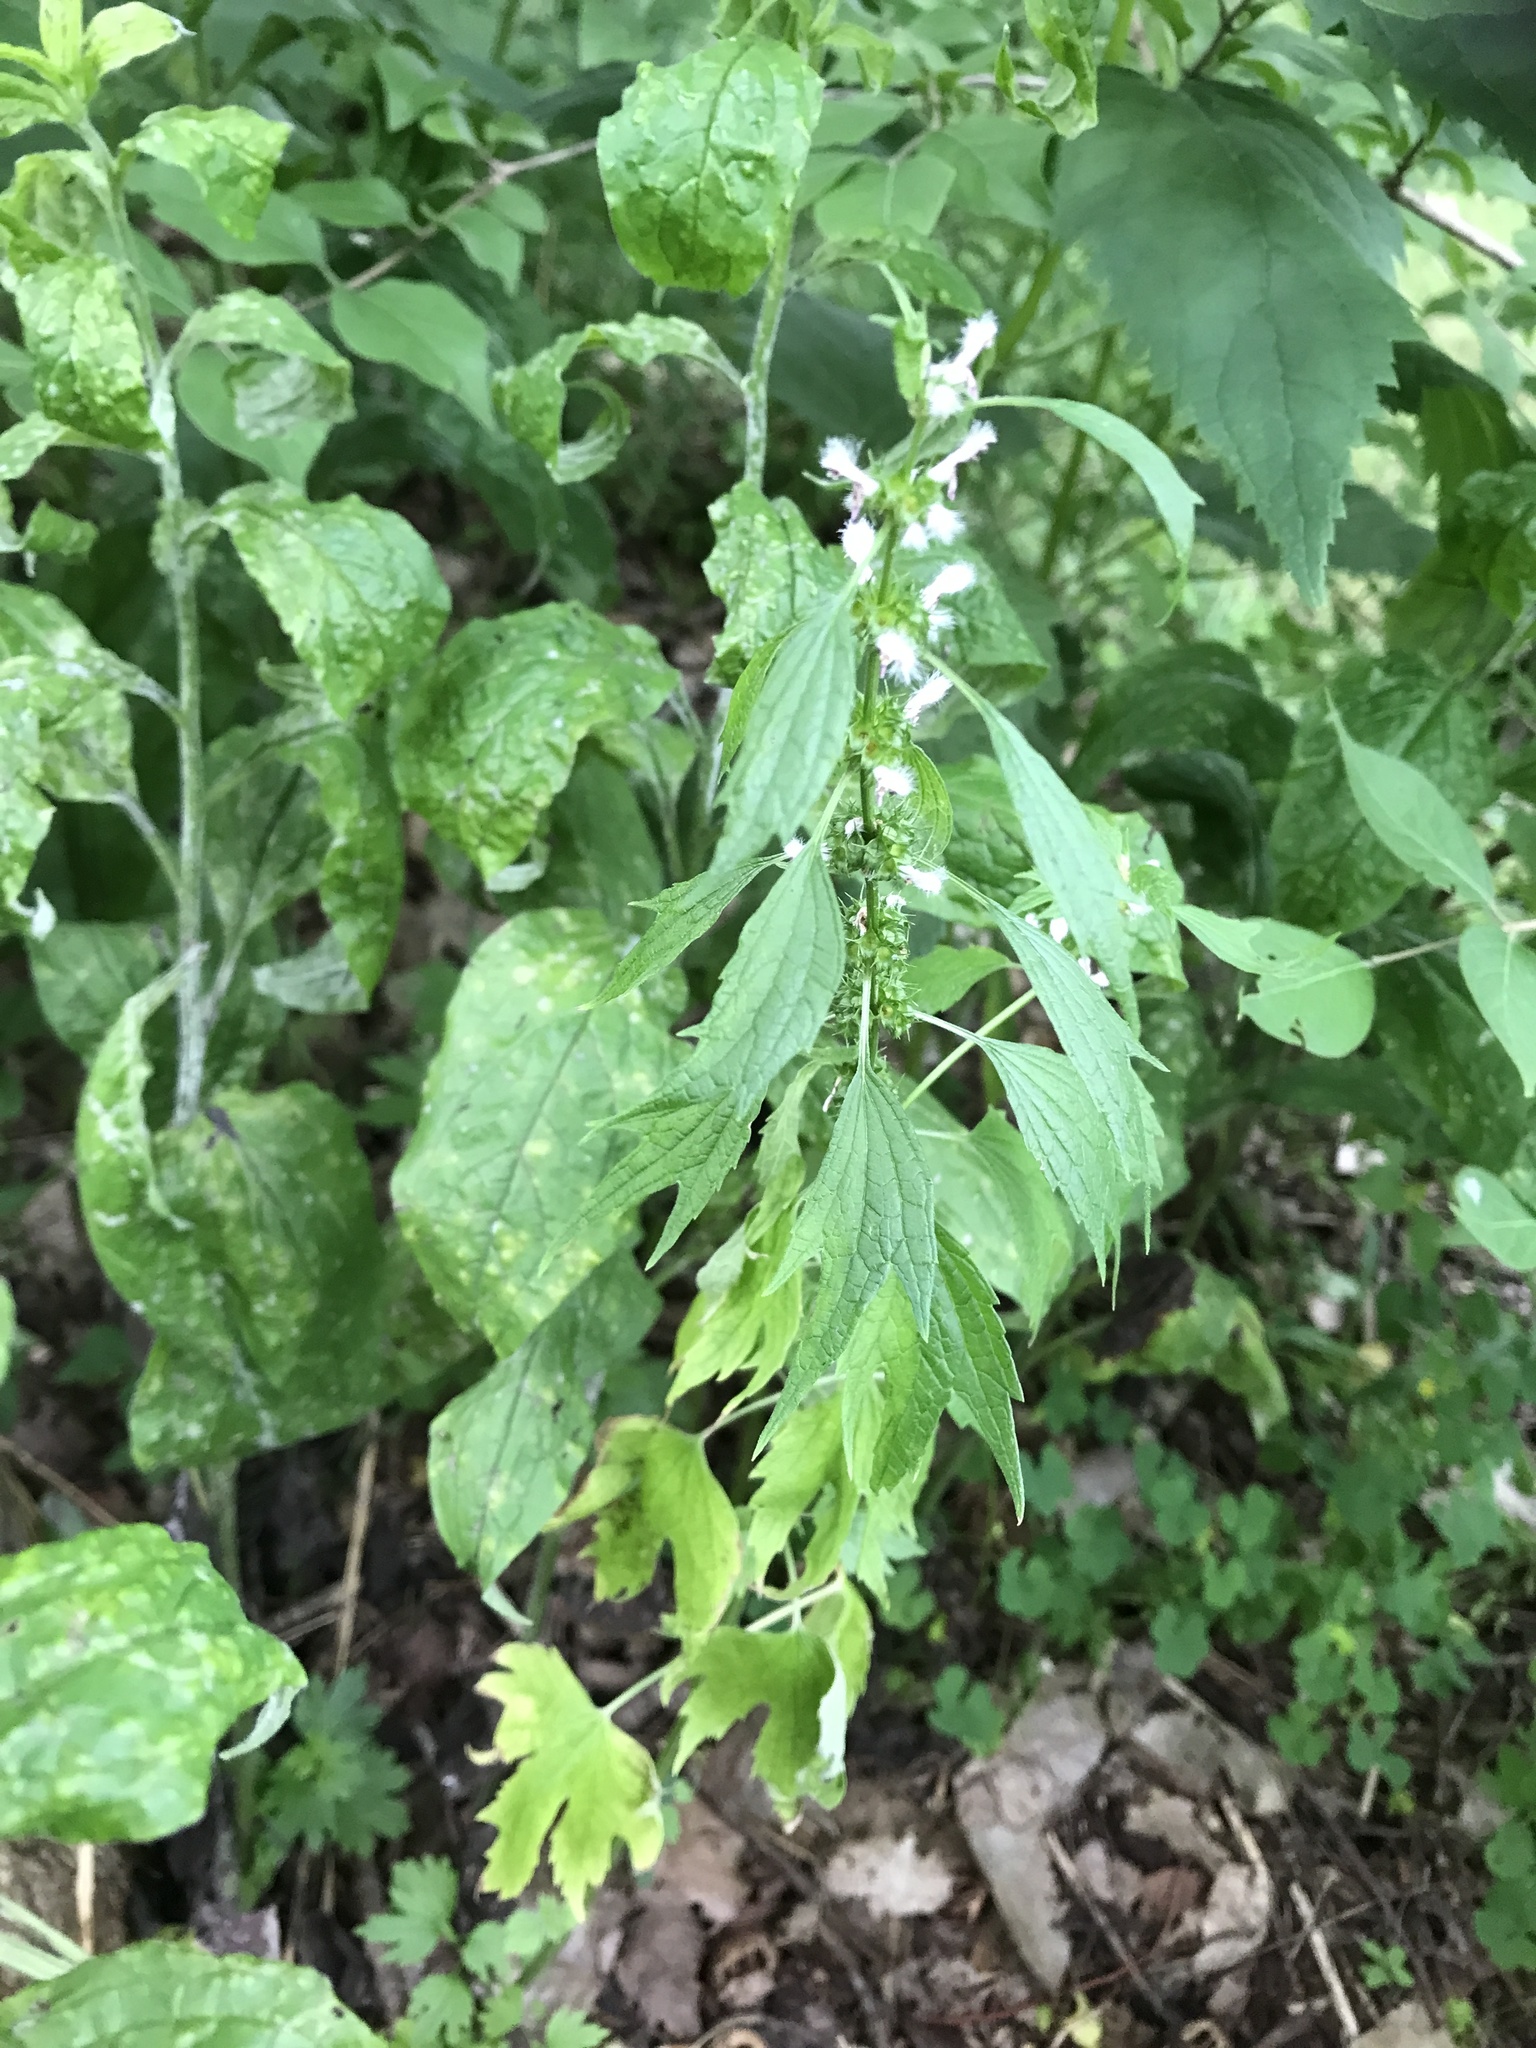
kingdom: Plantae
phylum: Tracheophyta
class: Magnoliopsida
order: Lamiales
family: Lamiaceae
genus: Leonurus
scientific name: Leonurus cardiaca
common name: Motherwort
